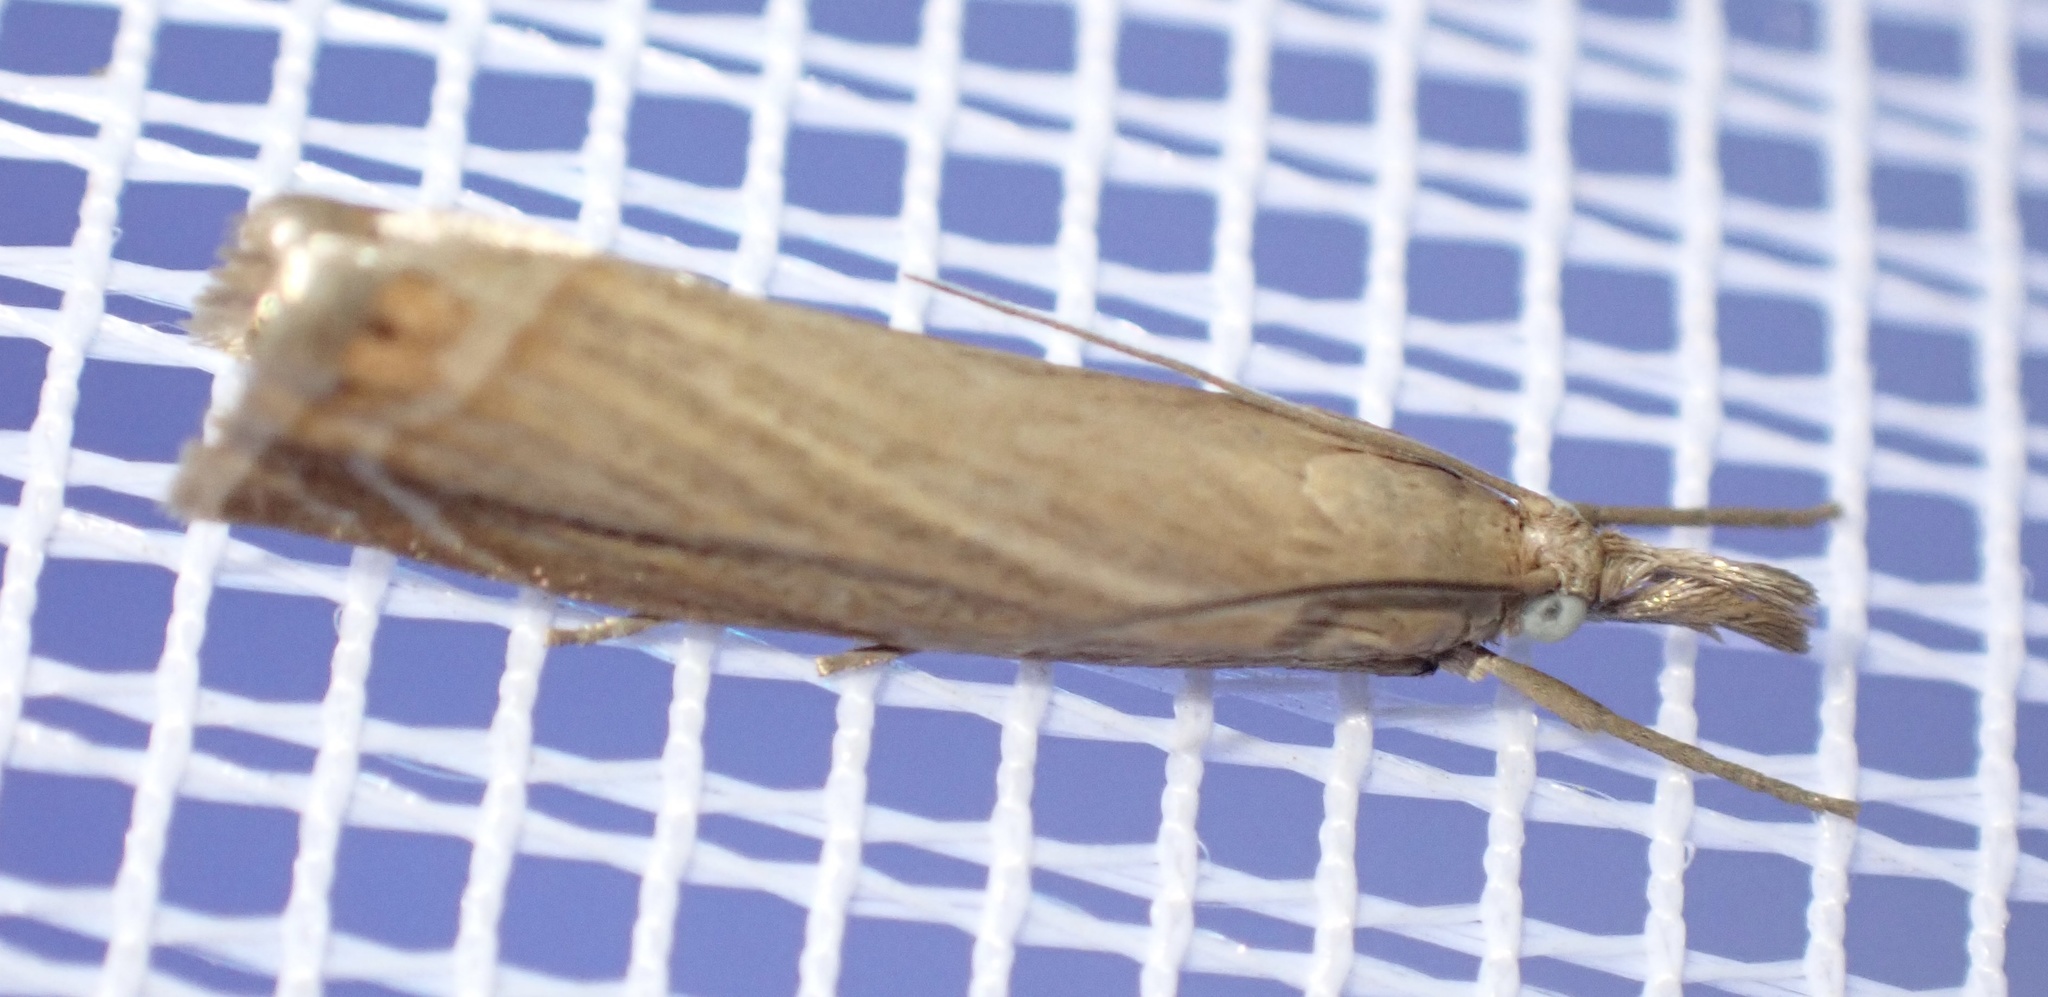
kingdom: Animalia
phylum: Arthropoda
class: Insecta
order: Lepidoptera
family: Crambidae
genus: Chrysoteuchia
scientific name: Chrysoteuchia culmella
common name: Garden grass-veneer
